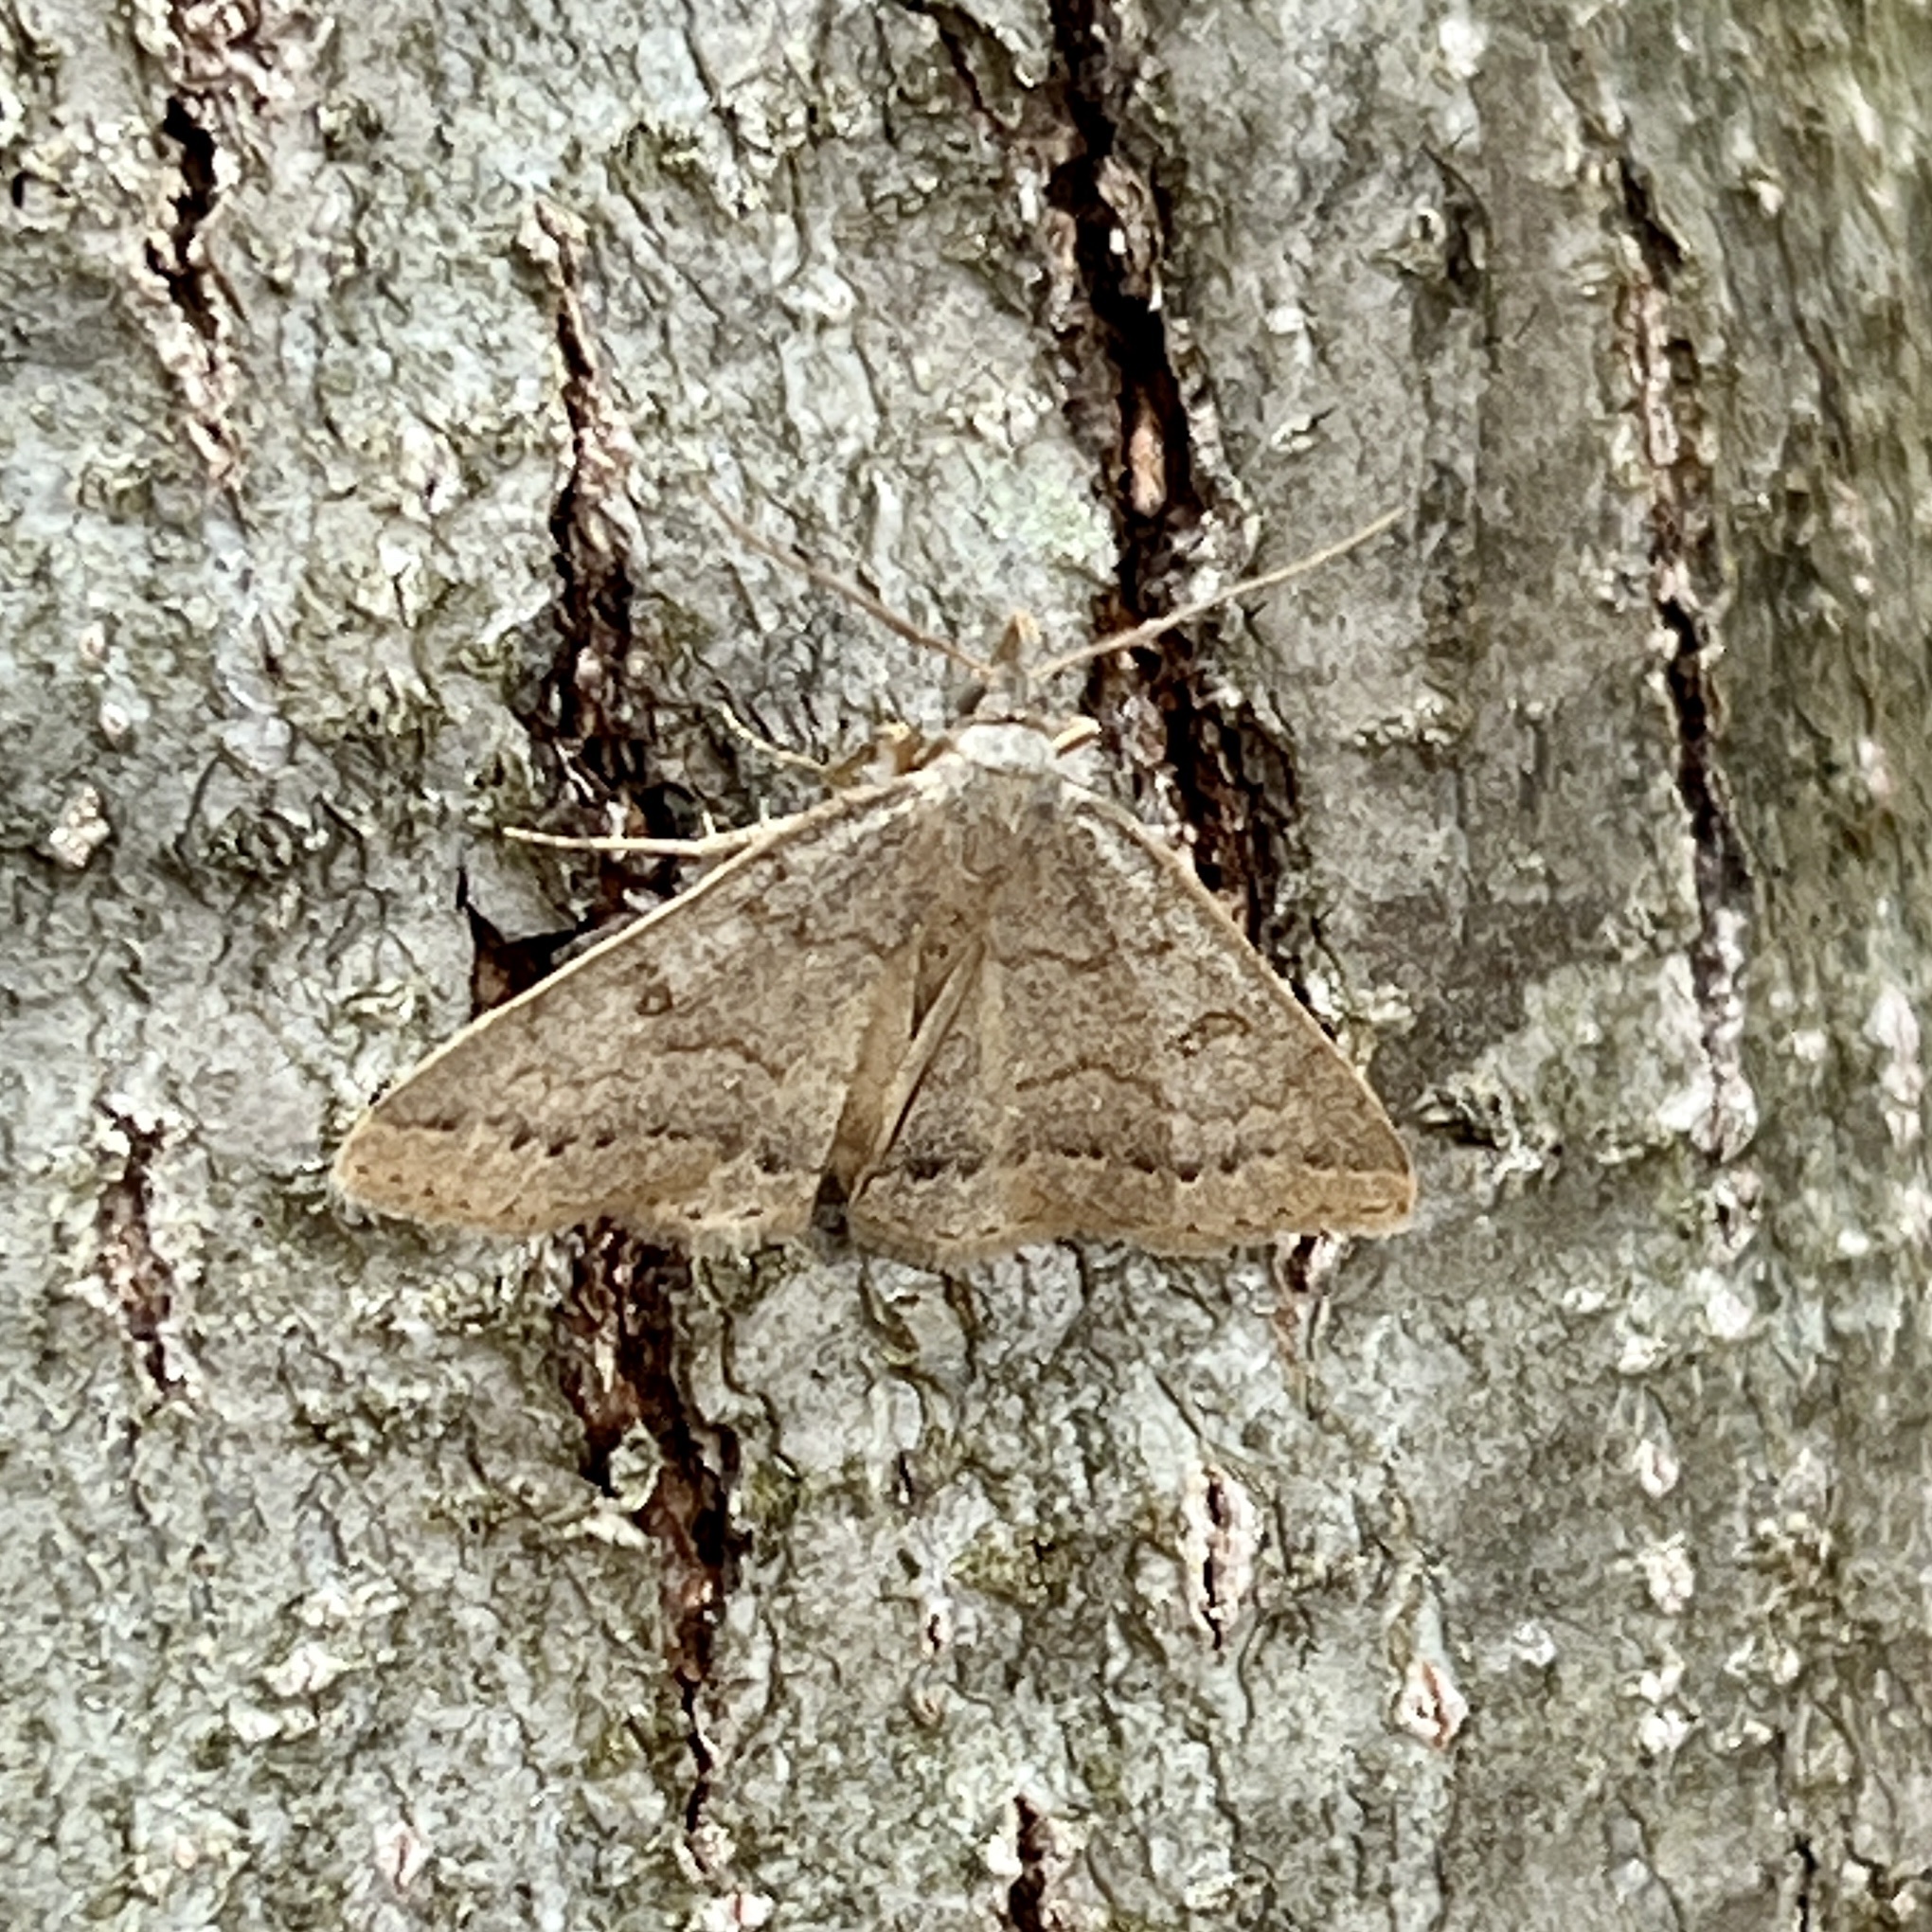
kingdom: Animalia
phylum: Arthropoda
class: Insecta
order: Lepidoptera
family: Erebidae
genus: Macrochilo
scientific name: Macrochilo morbidalis
